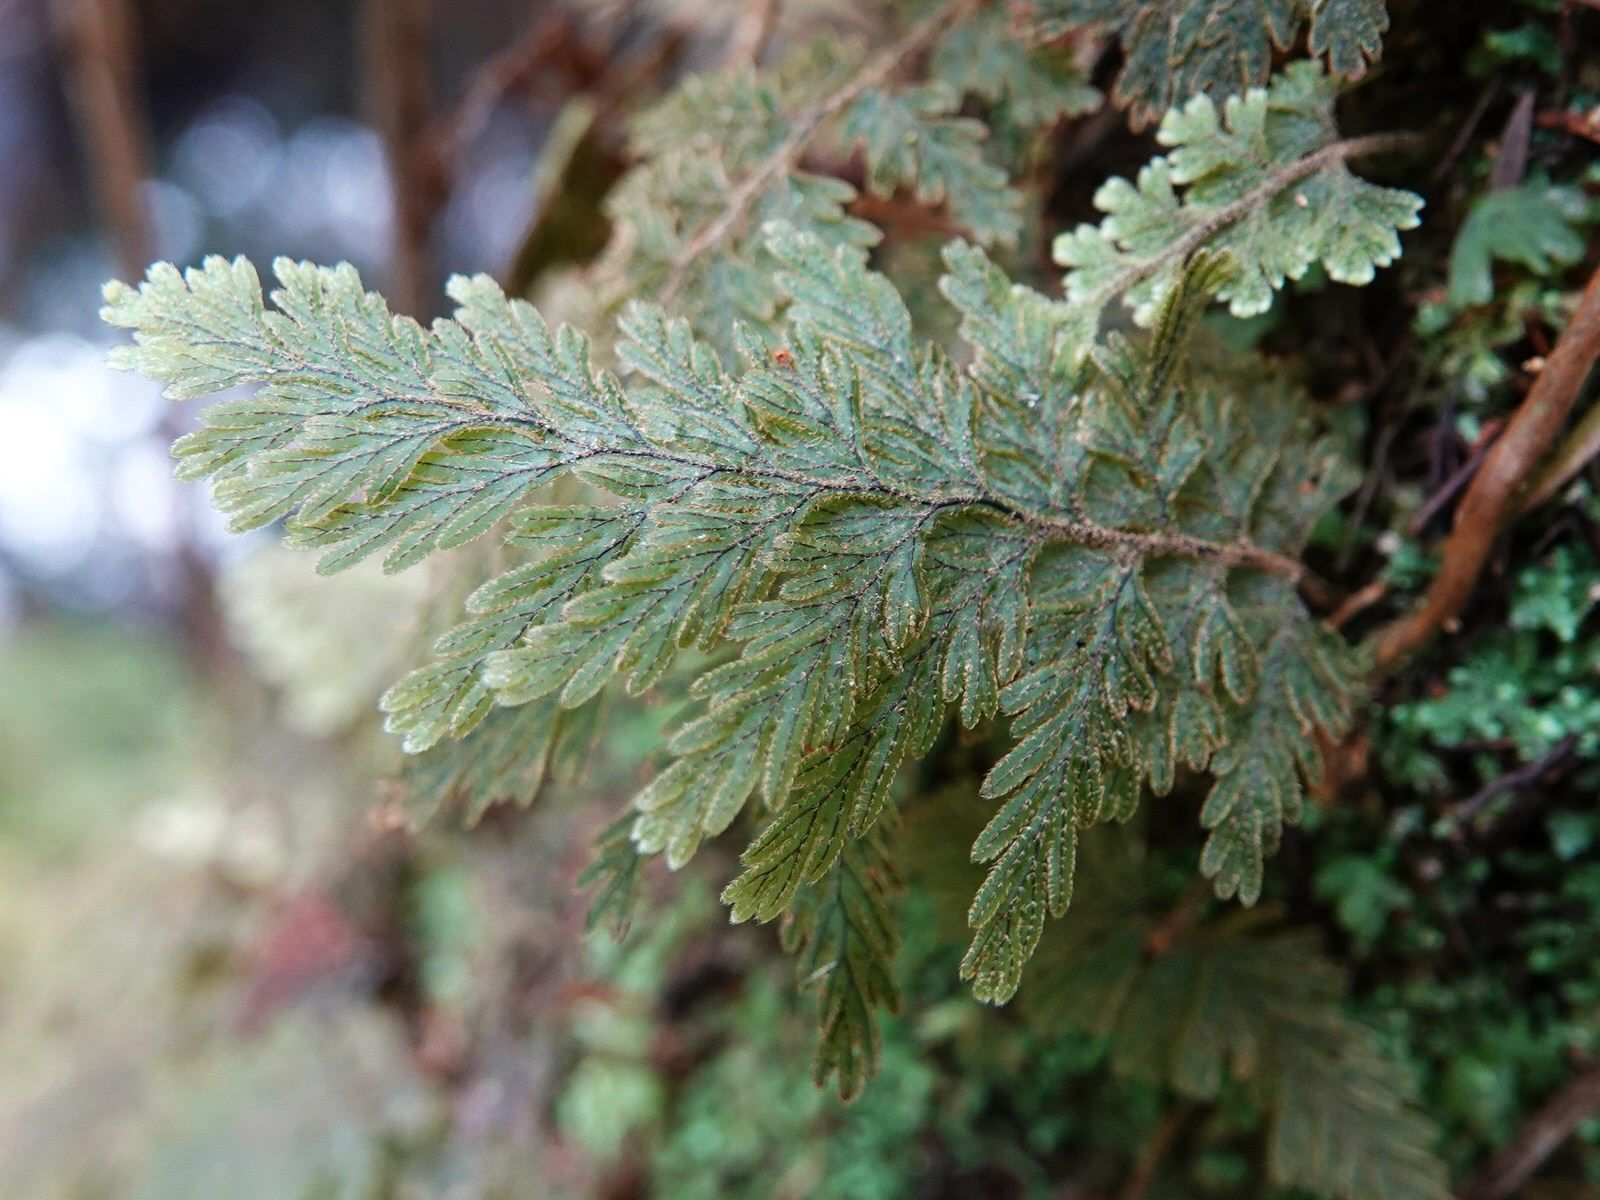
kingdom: Plantae
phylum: Tracheophyta
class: Polypodiopsida
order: Hymenophyllales
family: Hymenophyllaceae
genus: Hymenophyllum
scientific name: Hymenophyllum frankliniae
